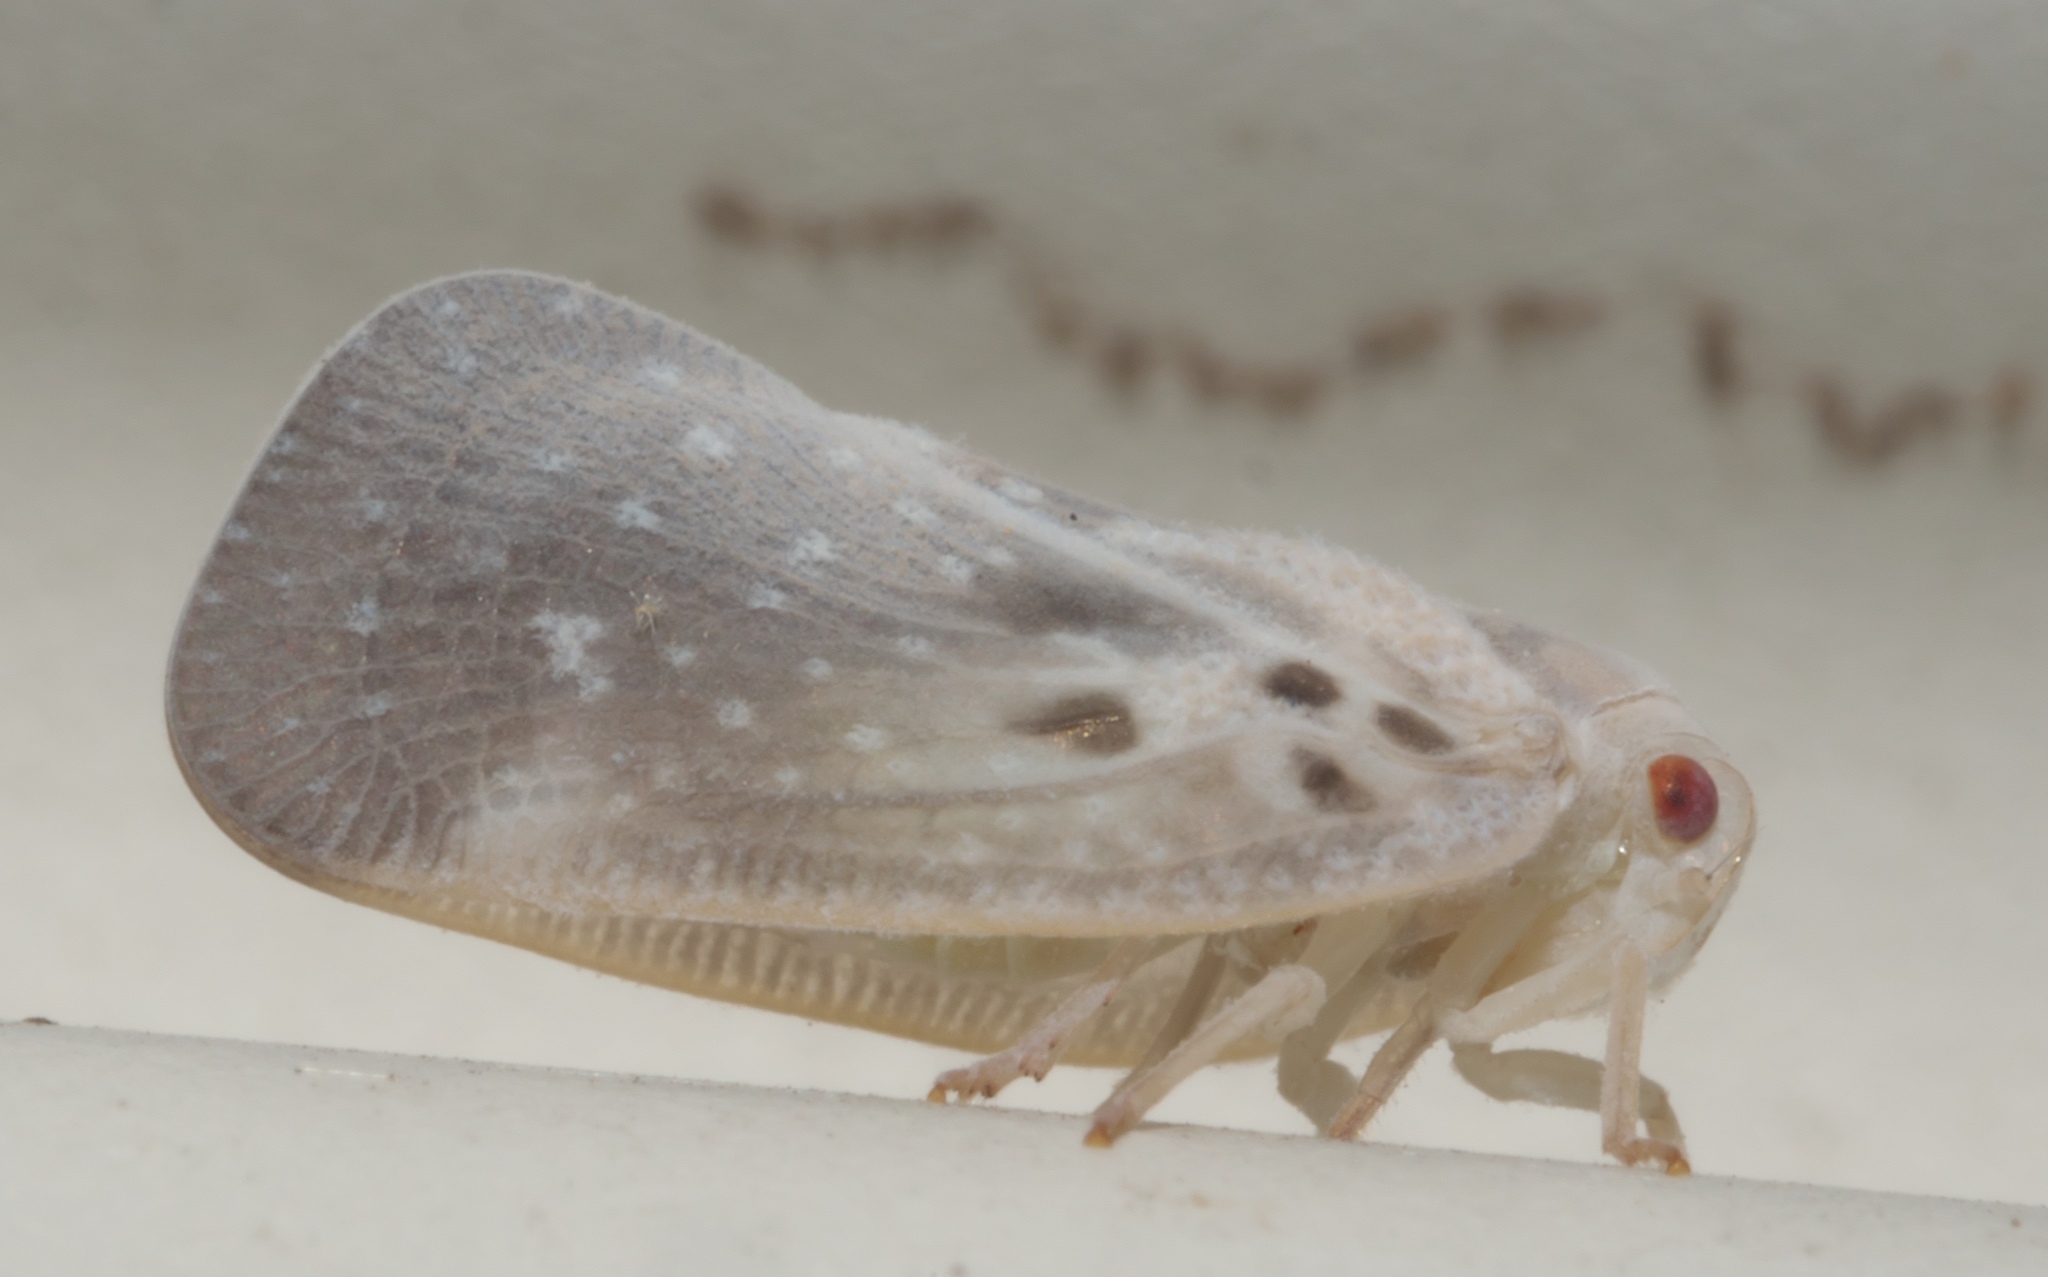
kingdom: Animalia
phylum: Arthropoda
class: Insecta
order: Hemiptera
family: Flatidae
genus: Metcalfa
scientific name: Metcalfa pruinosa
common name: Citrus flatid planthopper
